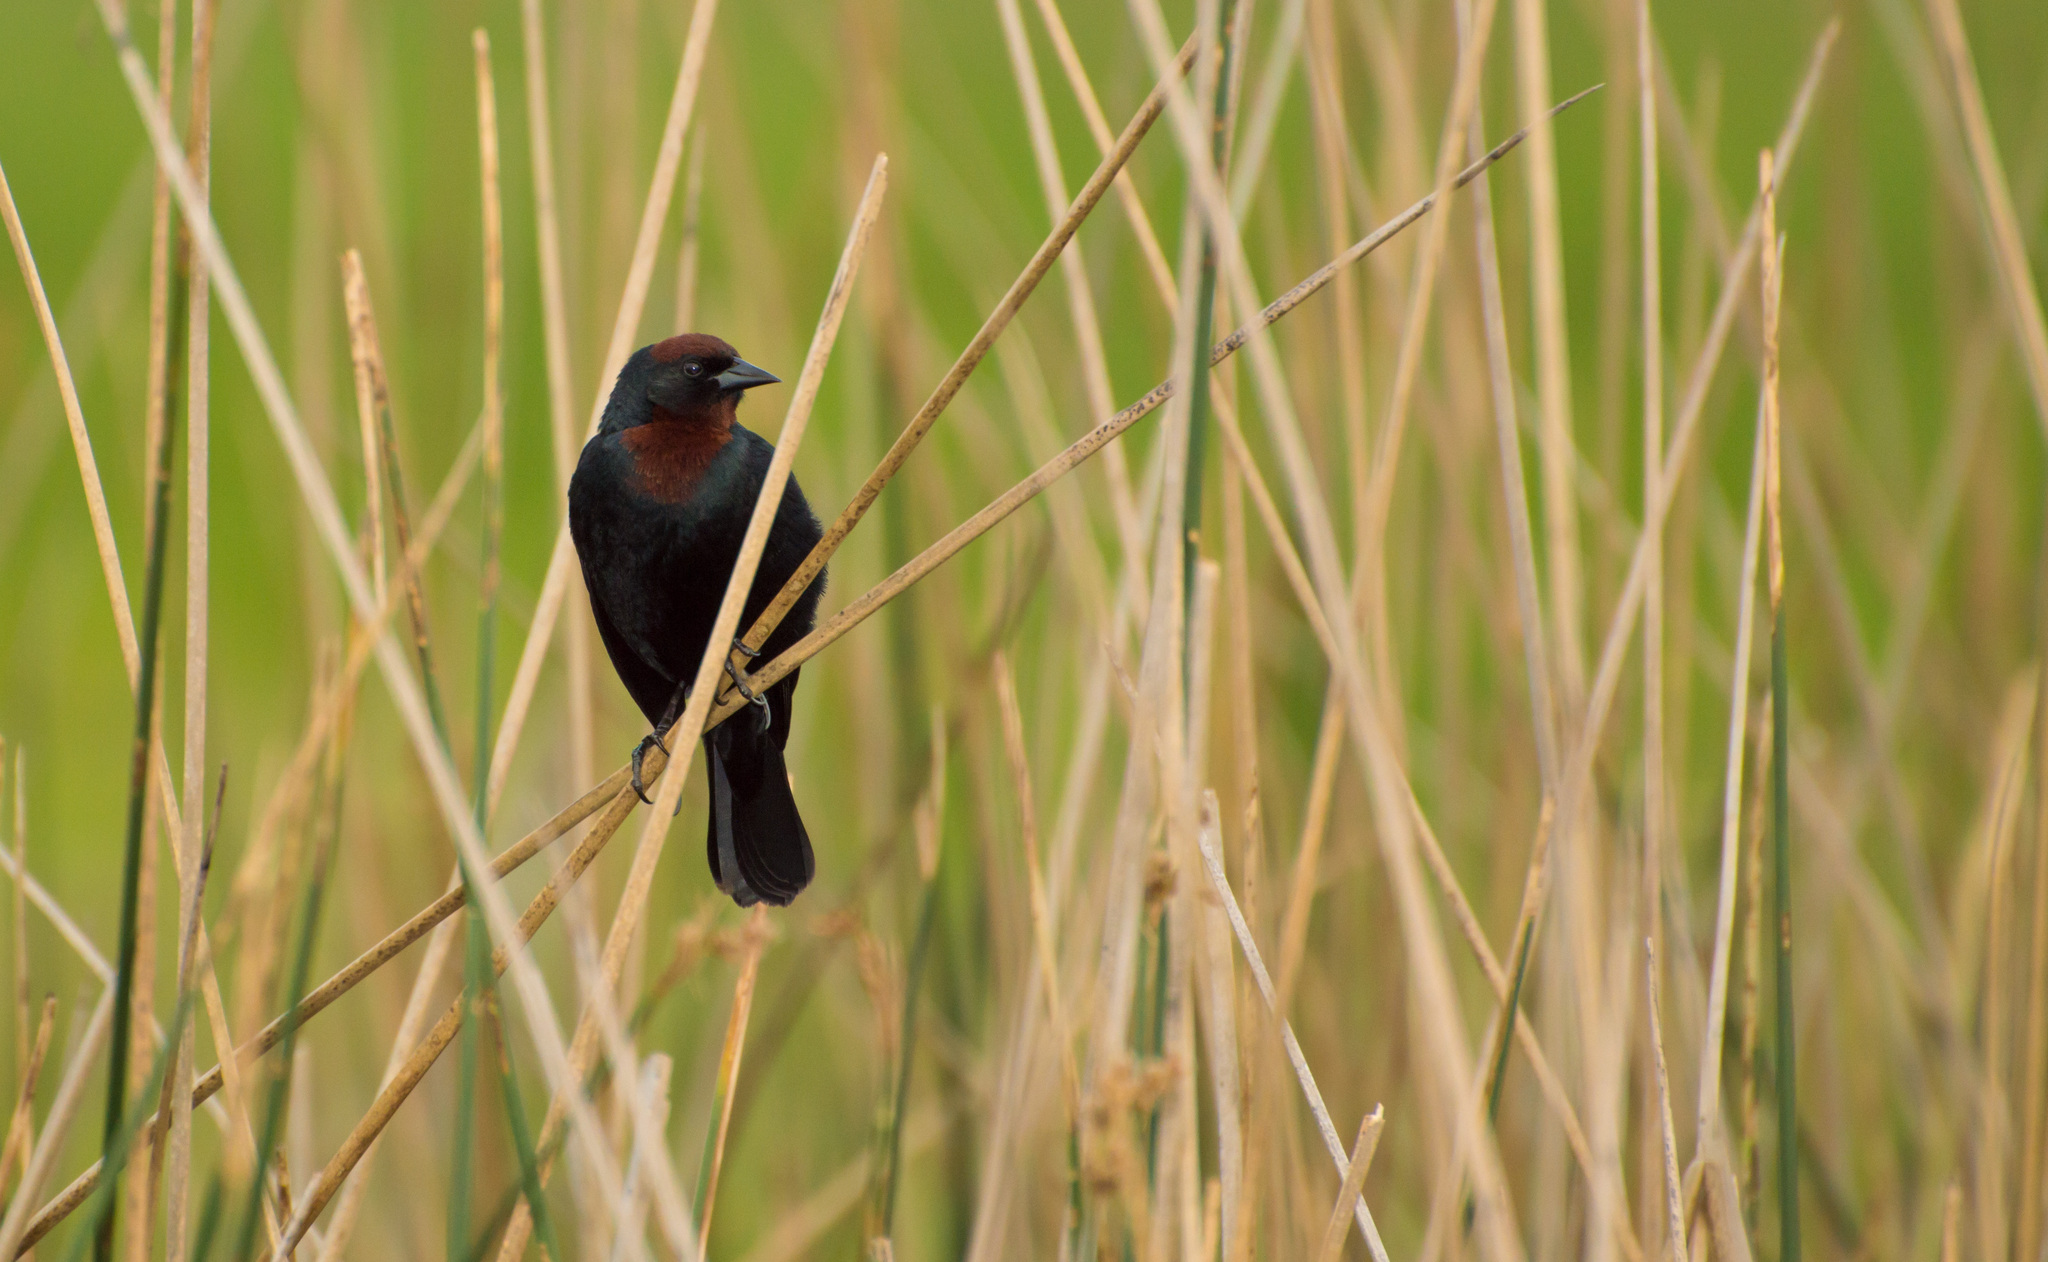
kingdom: Animalia
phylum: Chordata
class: Aves
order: Passeriformes
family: Icteridae
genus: Chrysomus
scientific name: Chrysomus ruficapillus
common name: Chestnut-capped blackbird
